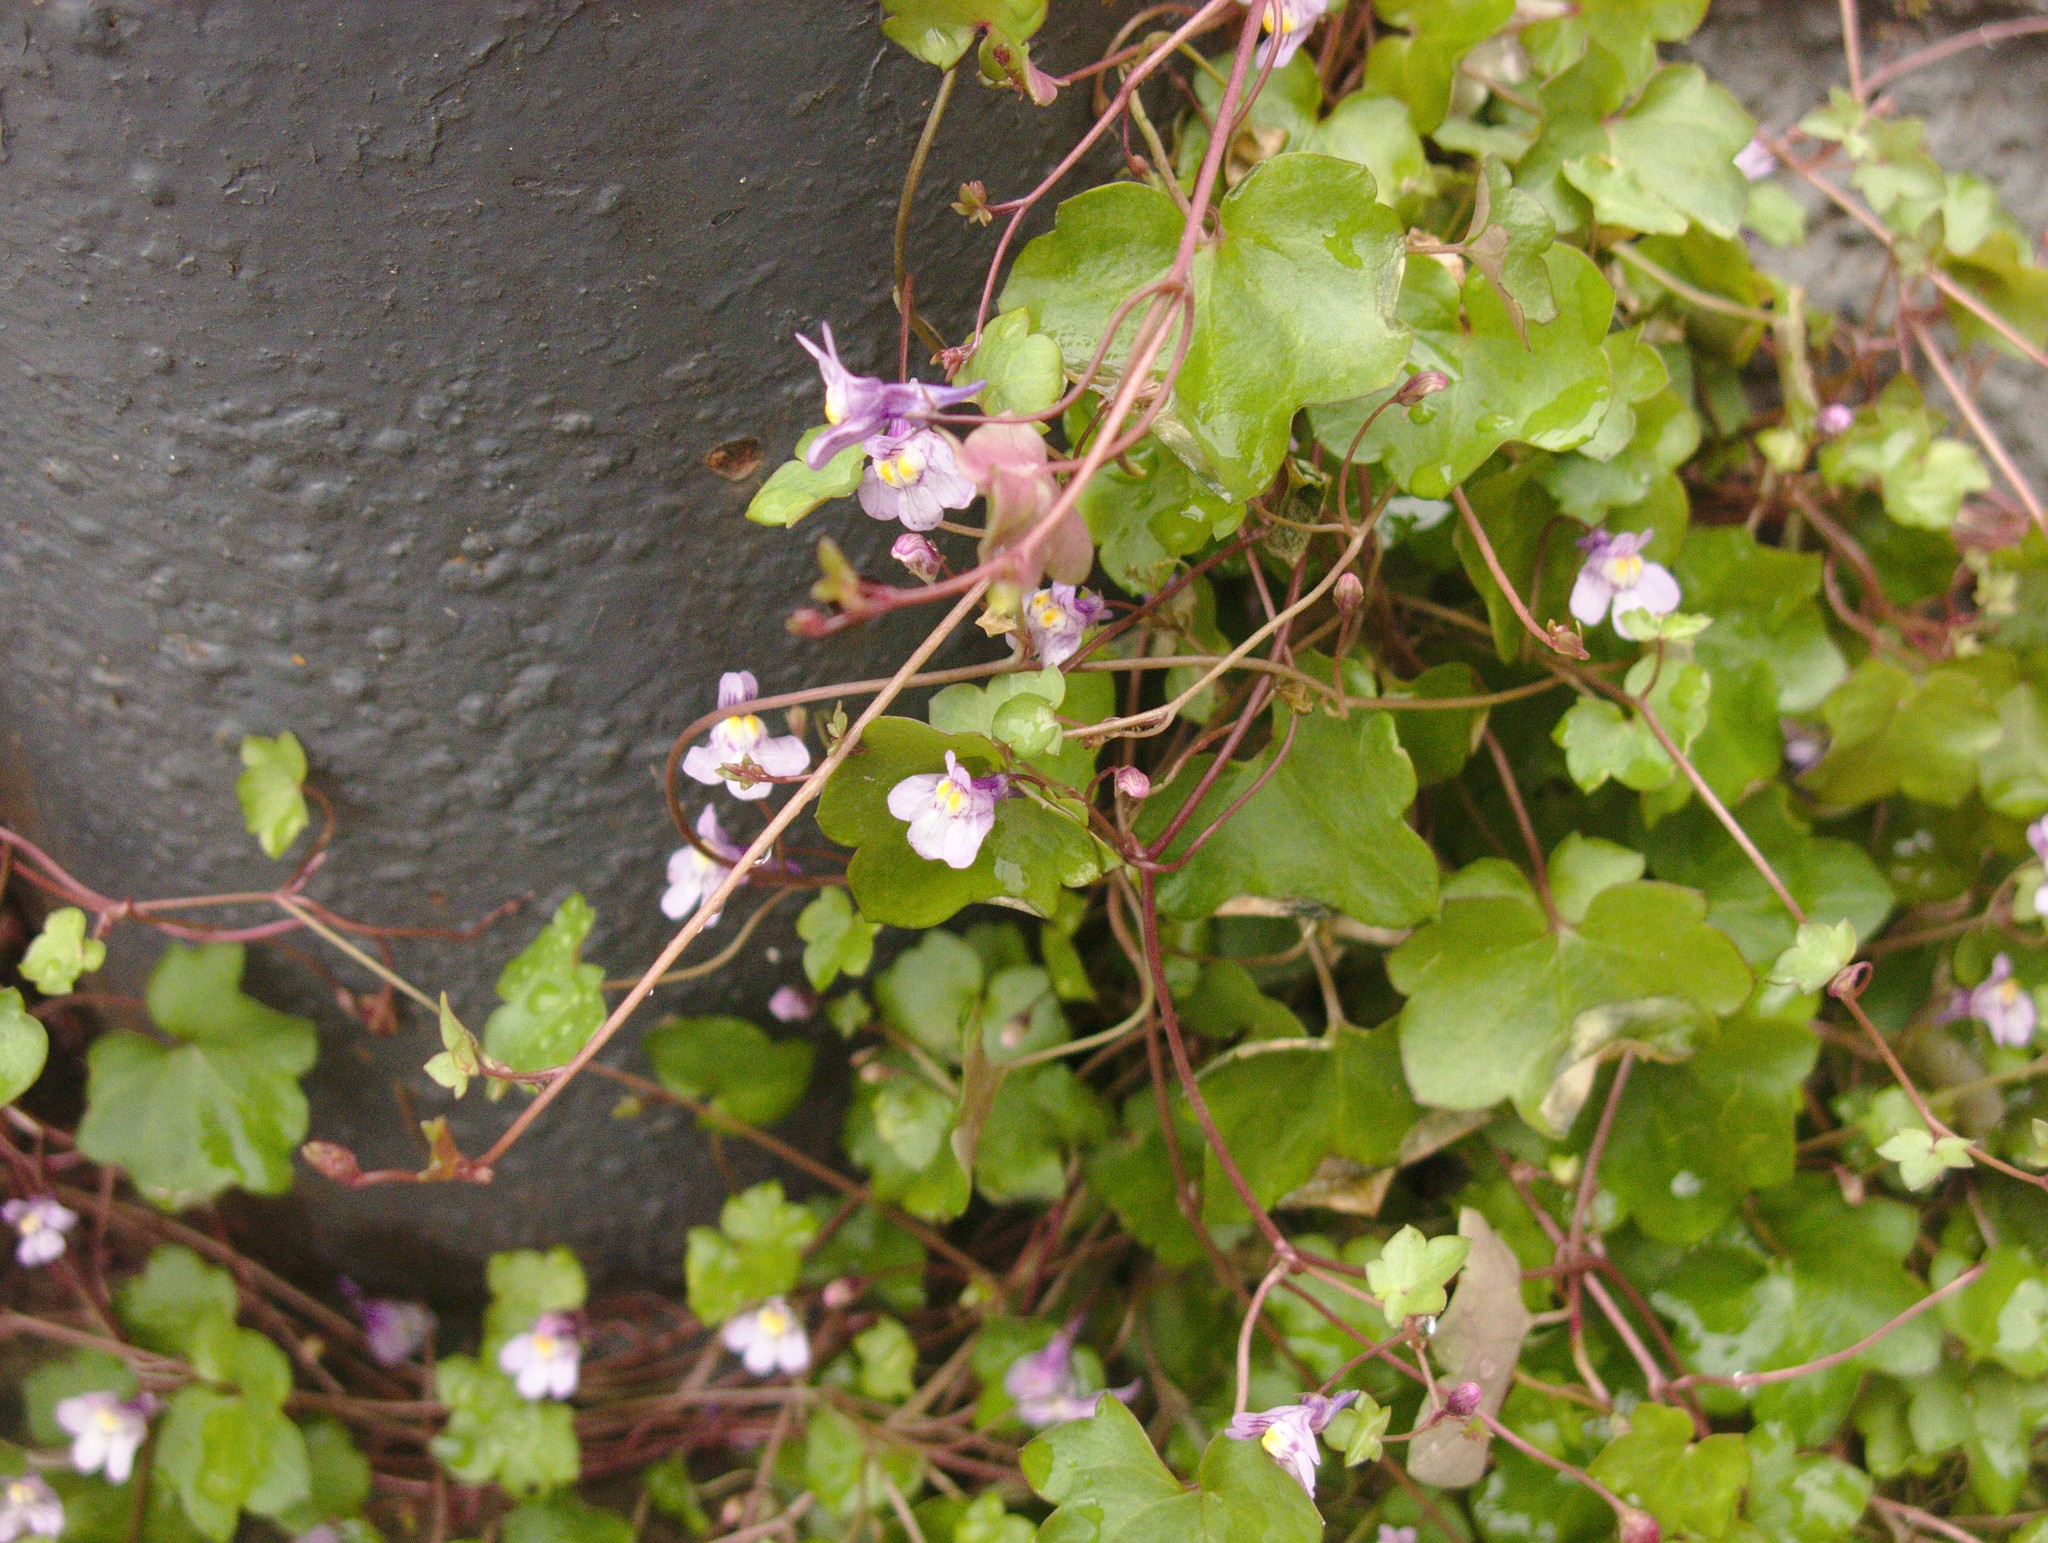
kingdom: Plantae
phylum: Tracheophyta
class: Magnoliopsida
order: Lamiales
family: Plantaginaceae
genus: Cymbalaria
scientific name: Cymbalaria muralis
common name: Ivy-leaved toadflax
